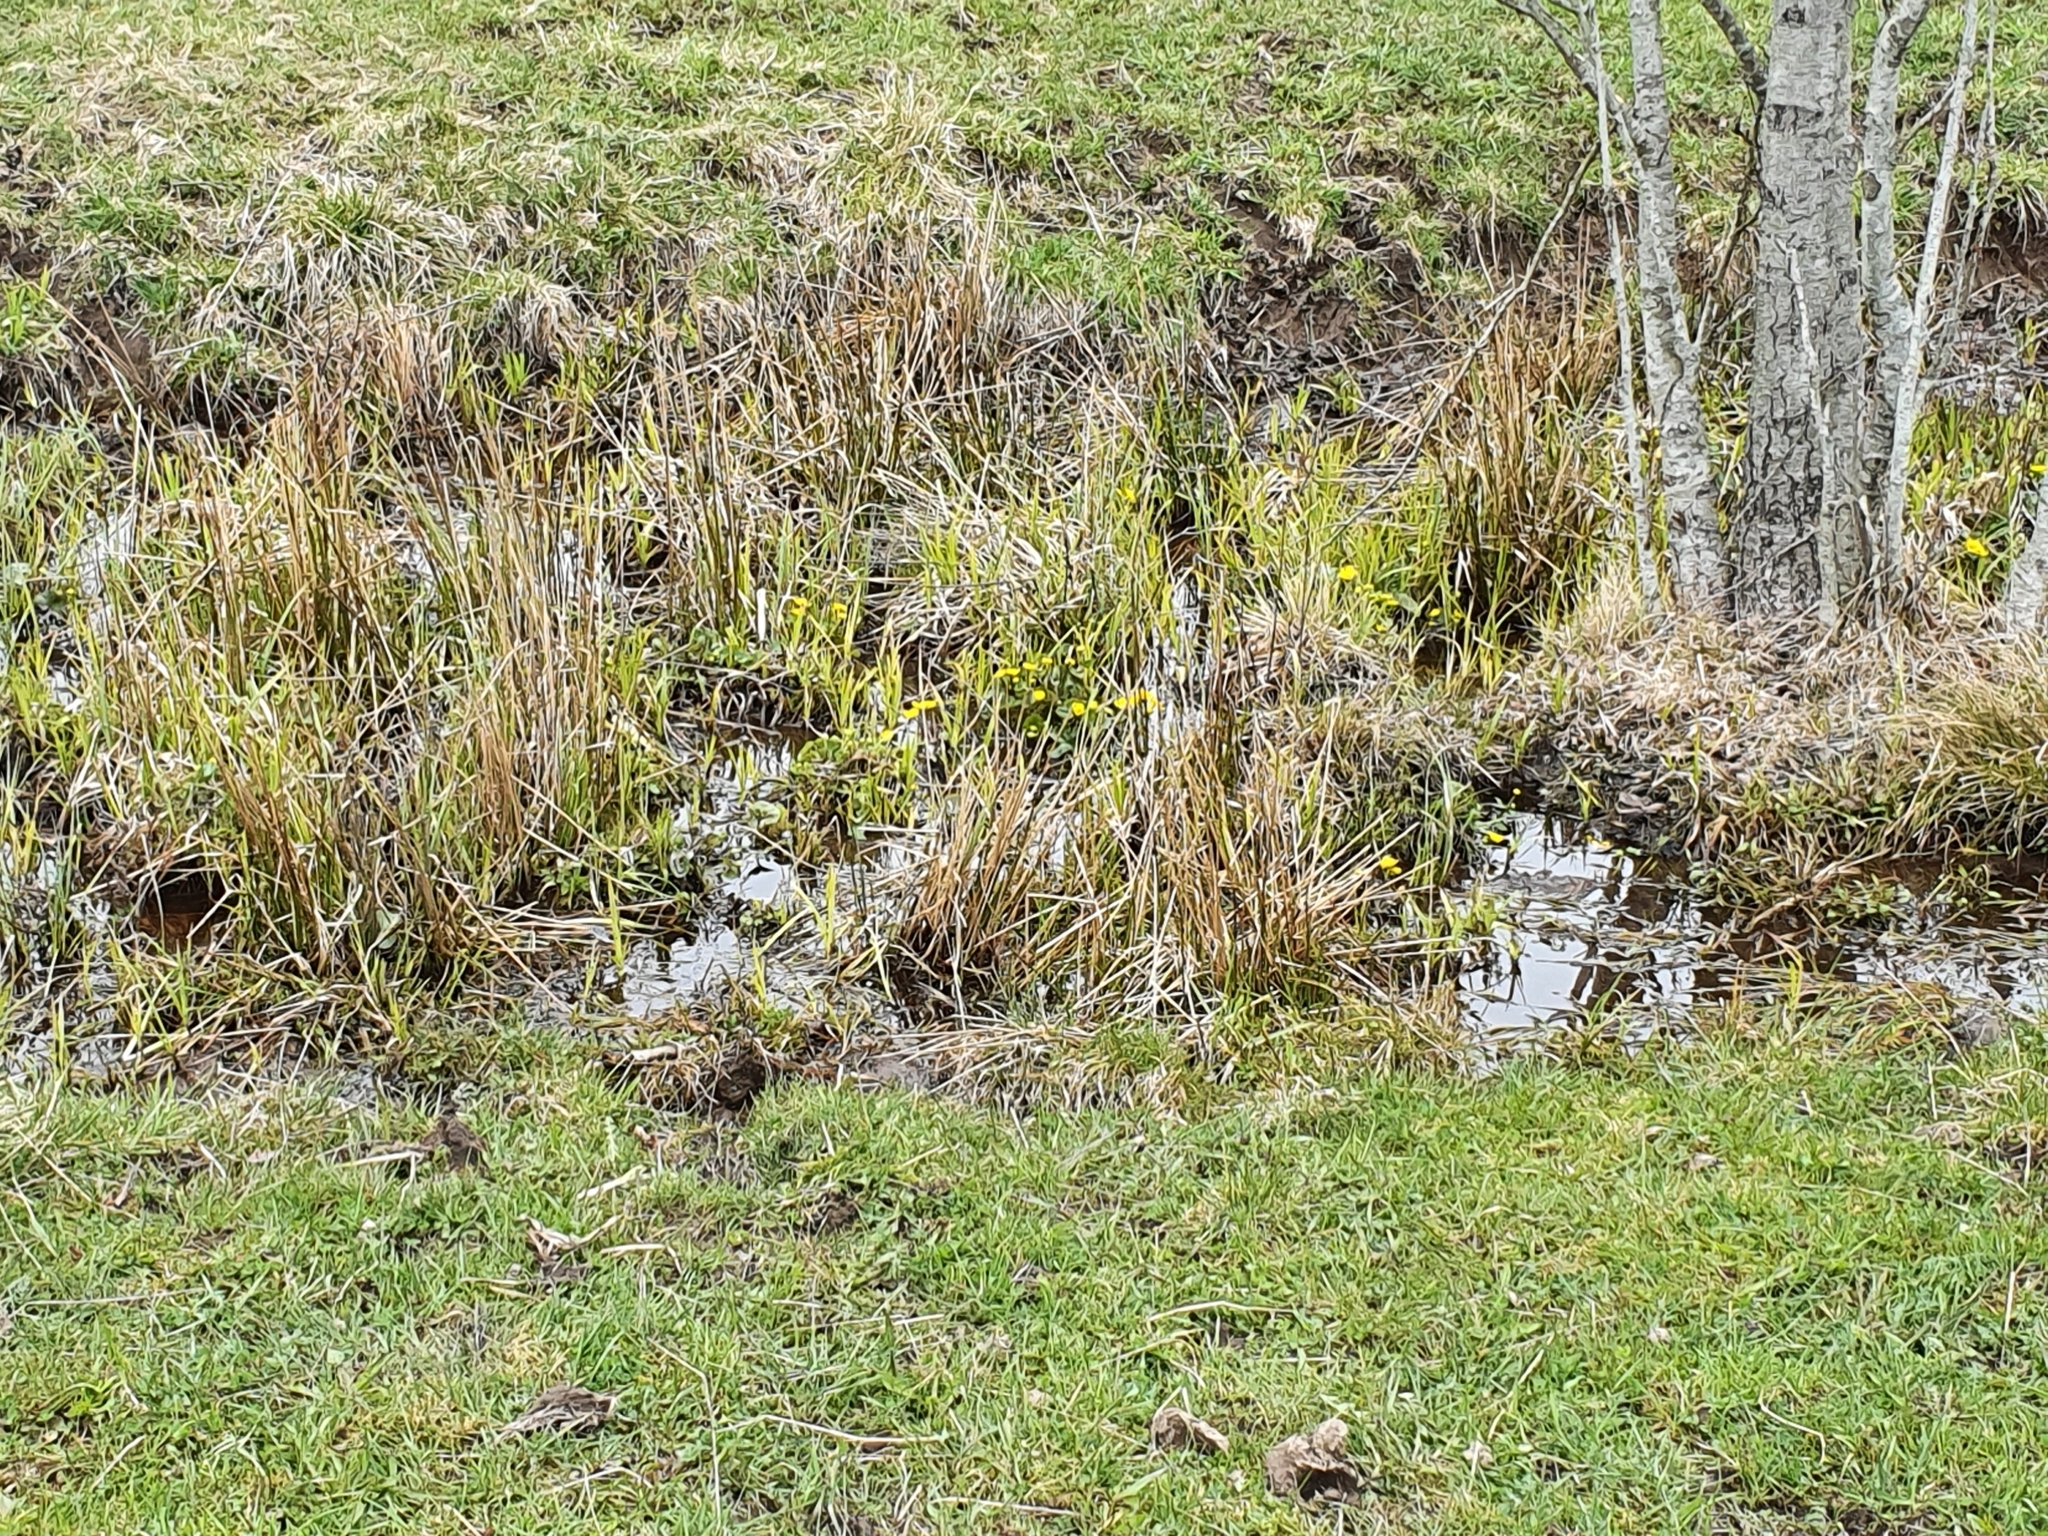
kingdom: Plantae
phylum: Tracheophyta
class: Magnoliopsida
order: Ranunculales
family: Ranunculaceae
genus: Caltha
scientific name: Caltha palustris
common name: Marsh marigold
